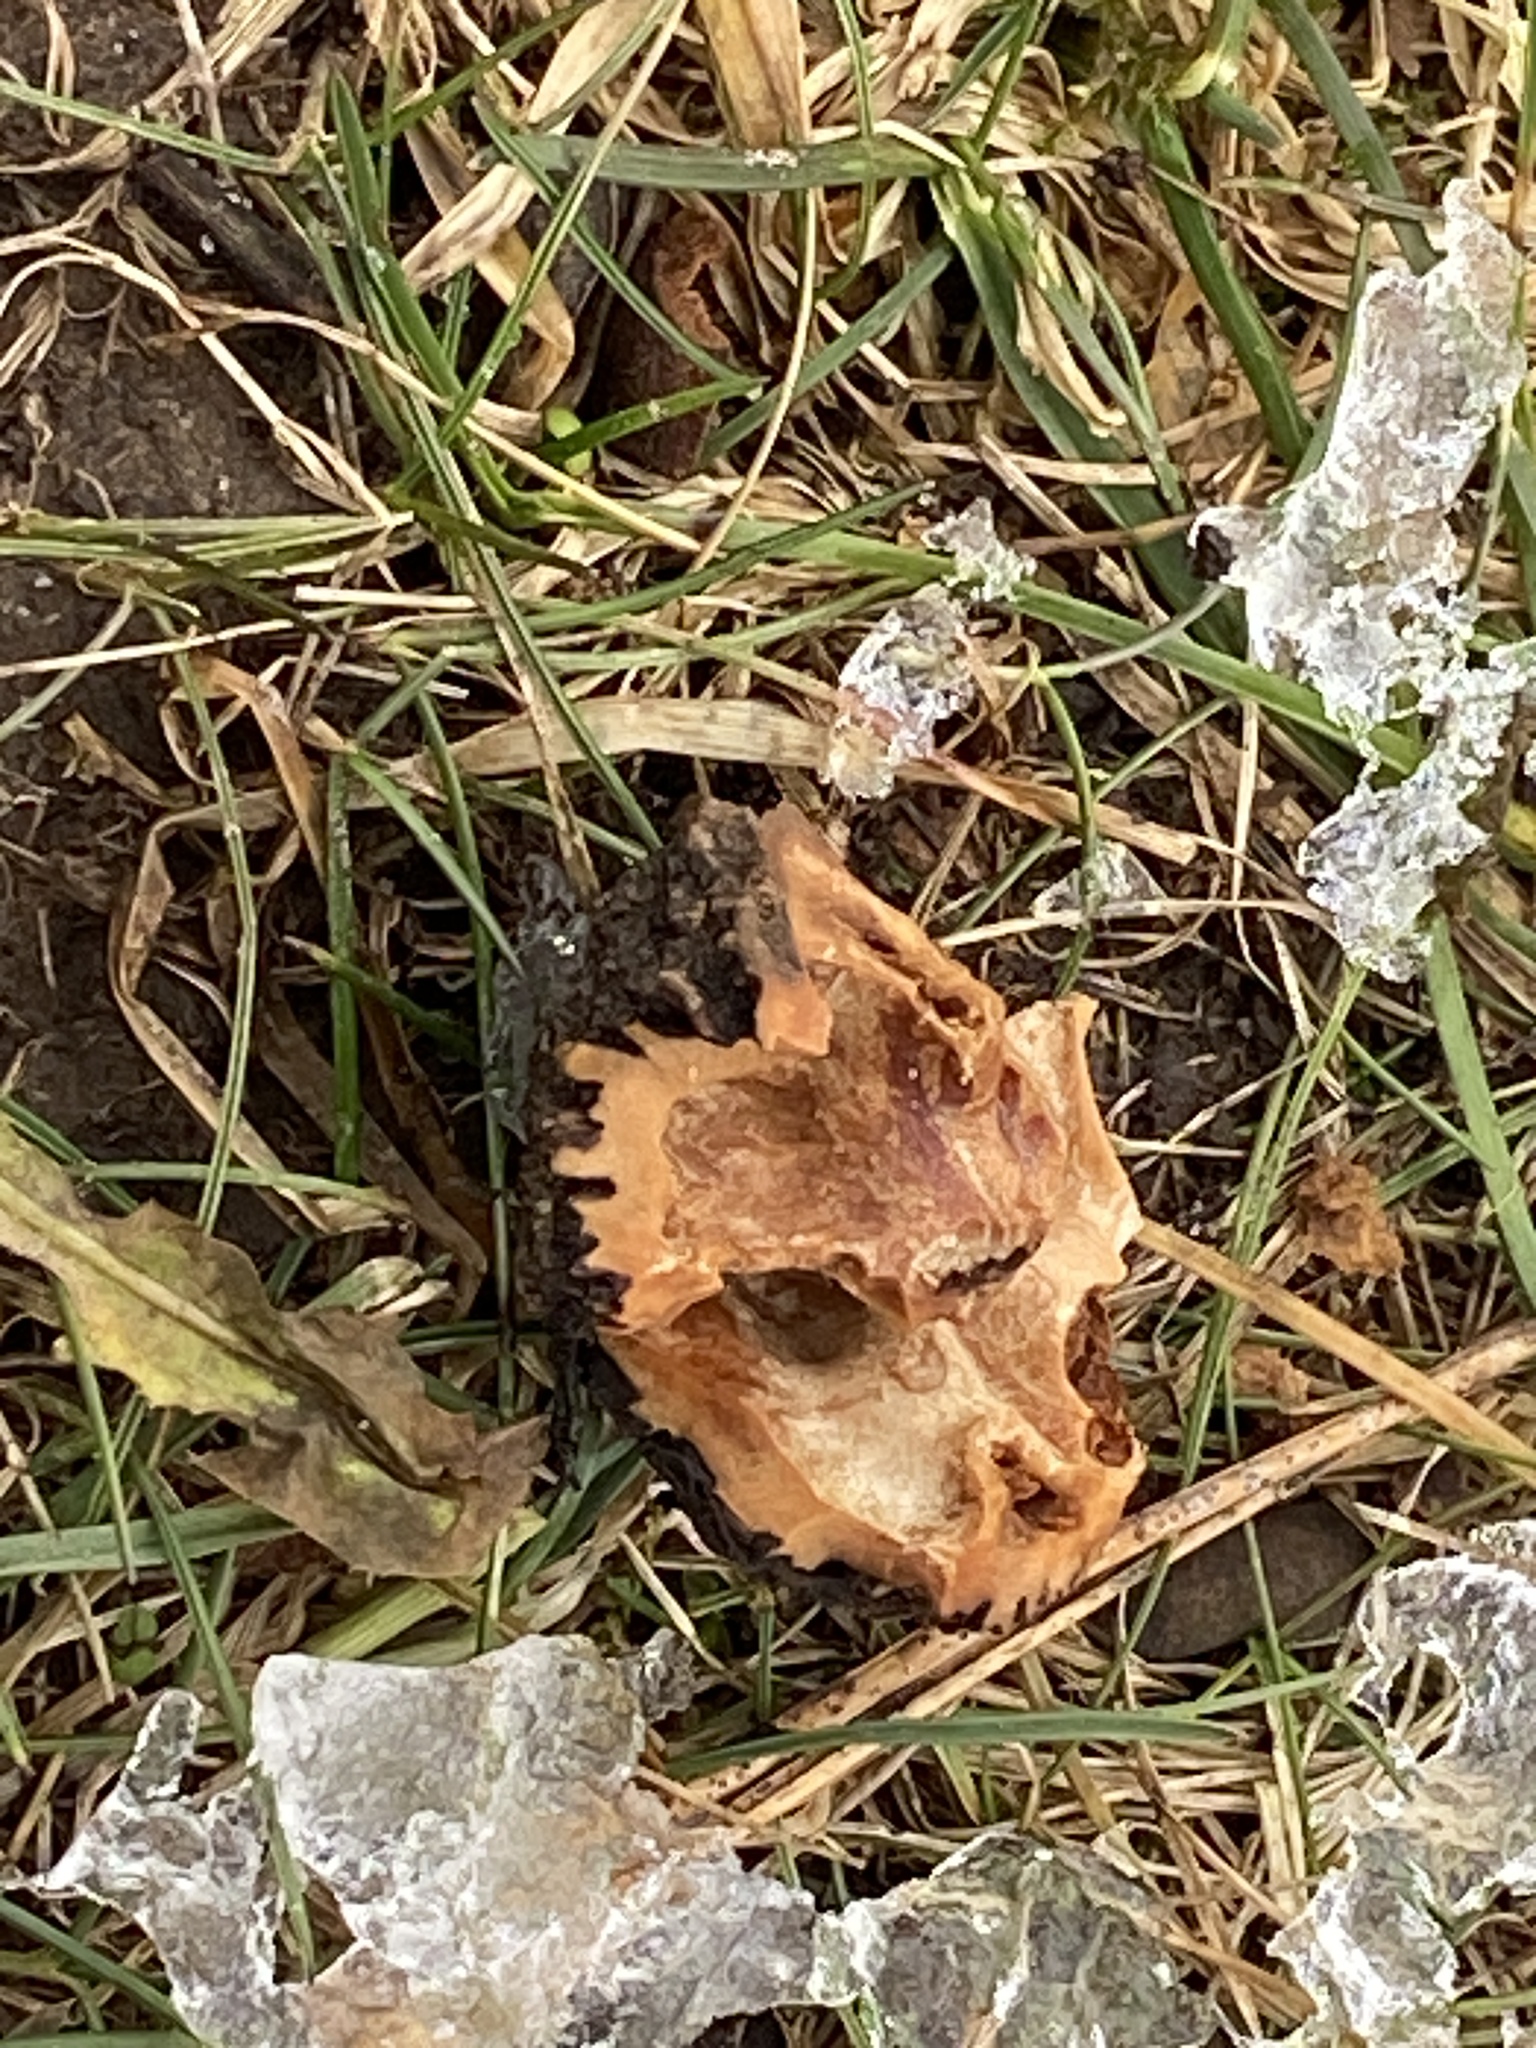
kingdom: Plantae
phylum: Tracheophyta
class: Magnoliopsida
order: Fagales
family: Juglandaceae
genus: Juglans
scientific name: Juglans nigra
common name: Black walnut
